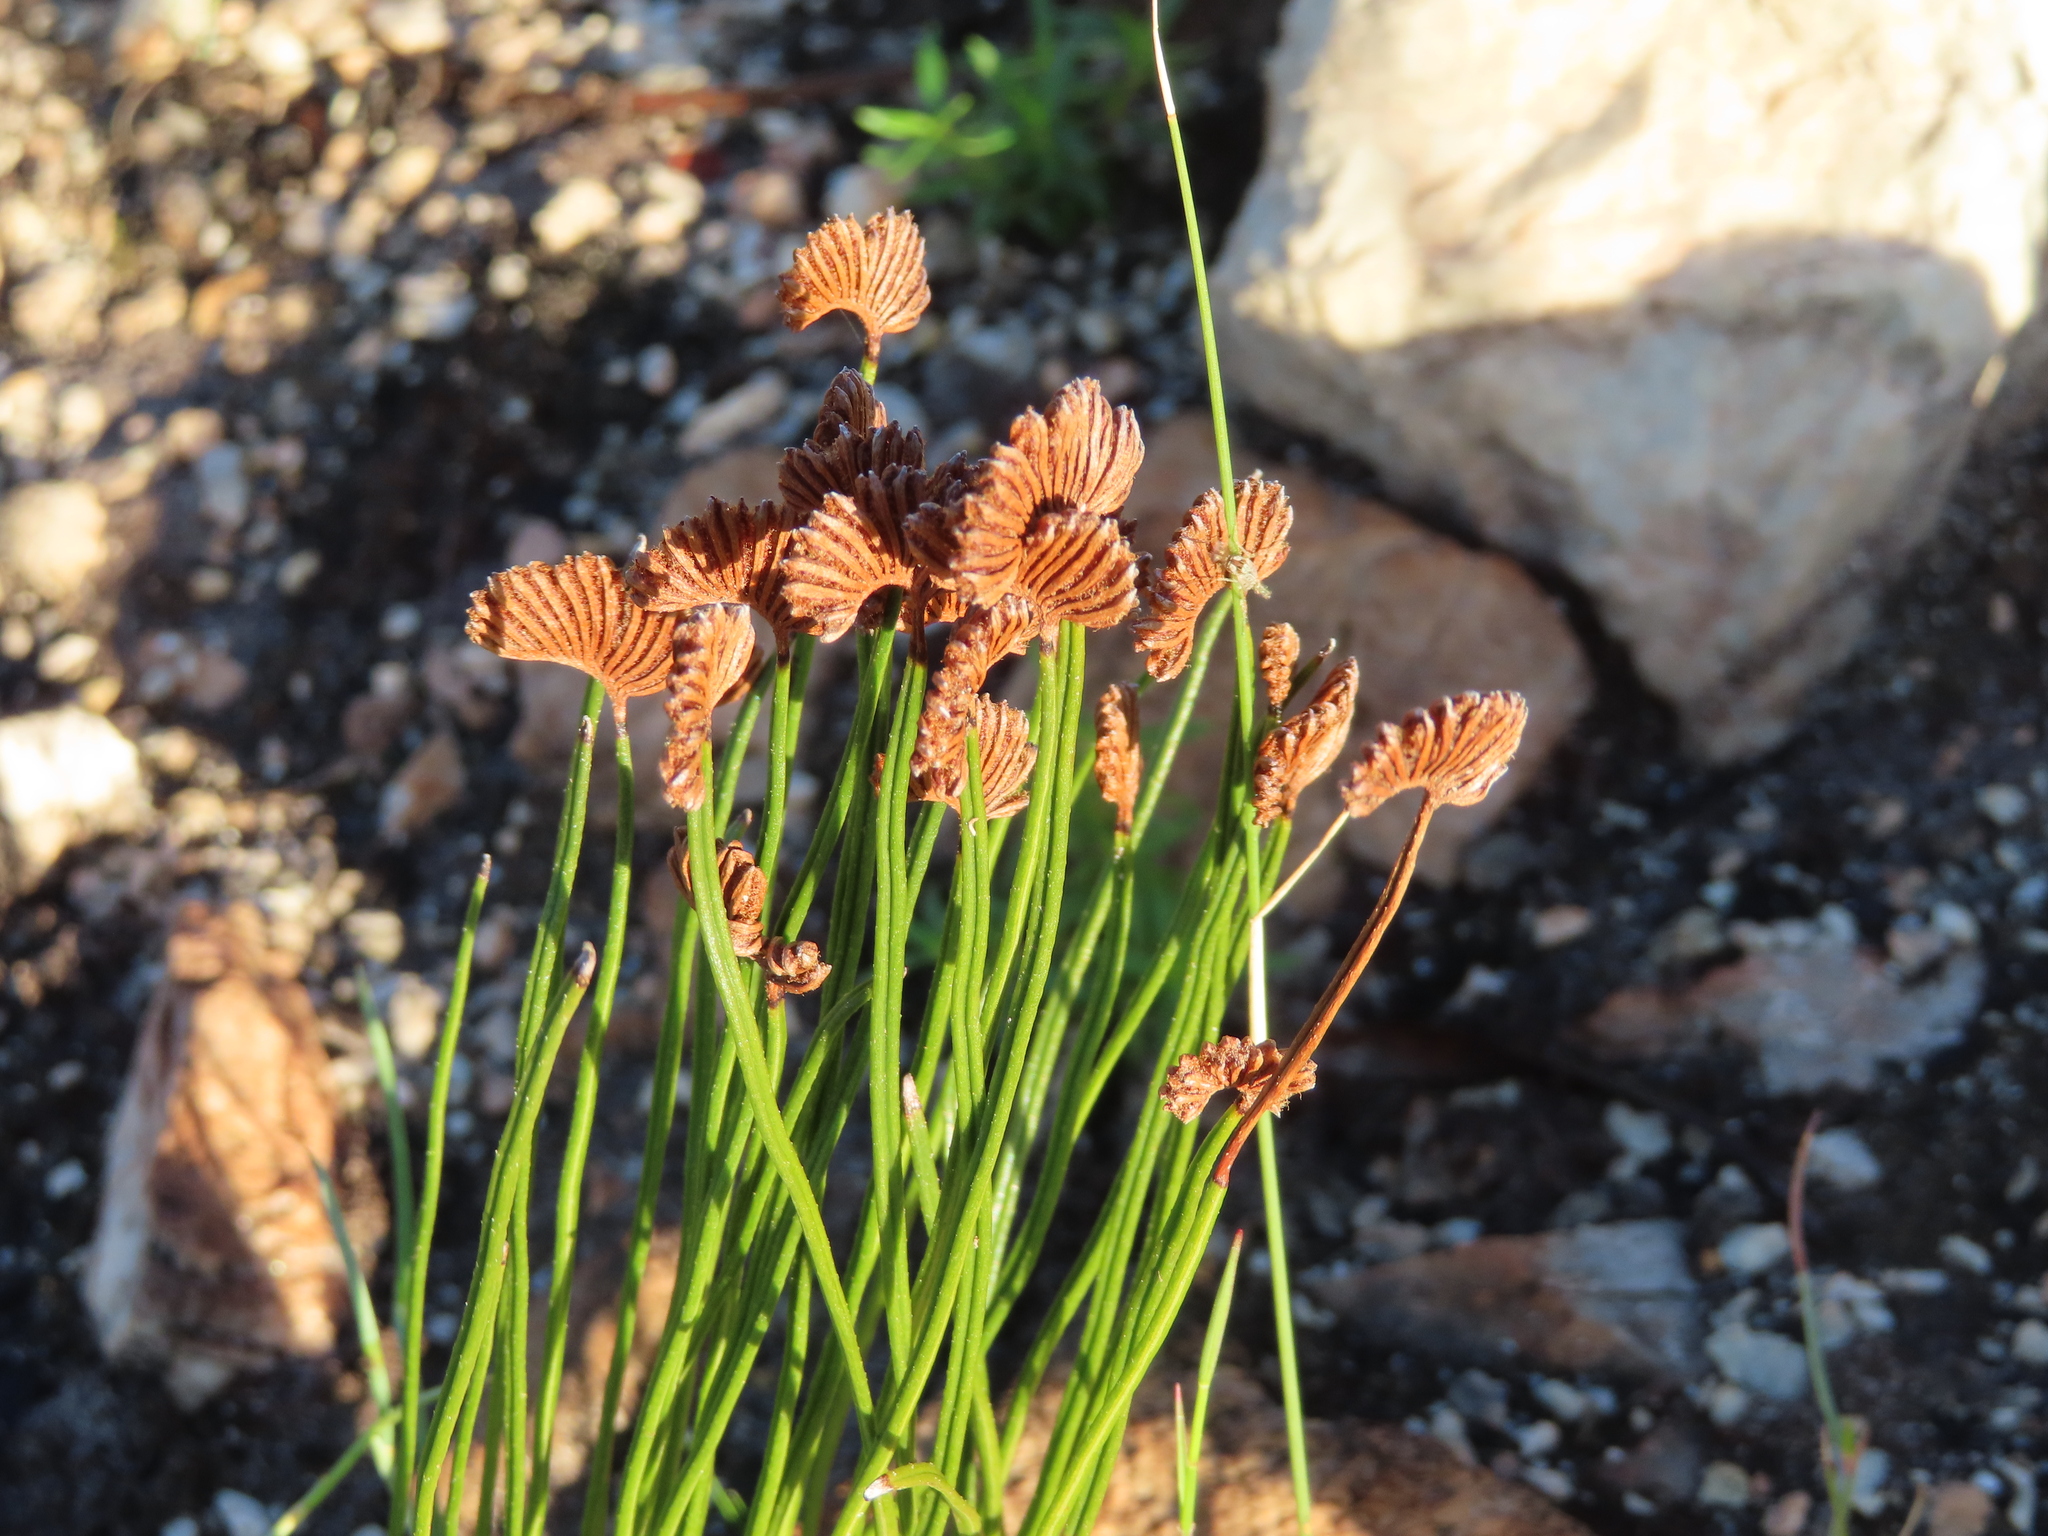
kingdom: Plantae
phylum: Tracheophyta
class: Polypodiopsida
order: Schizaeales
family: Schizaeaceae
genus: Schizaea
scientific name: Schizaea pectinata
